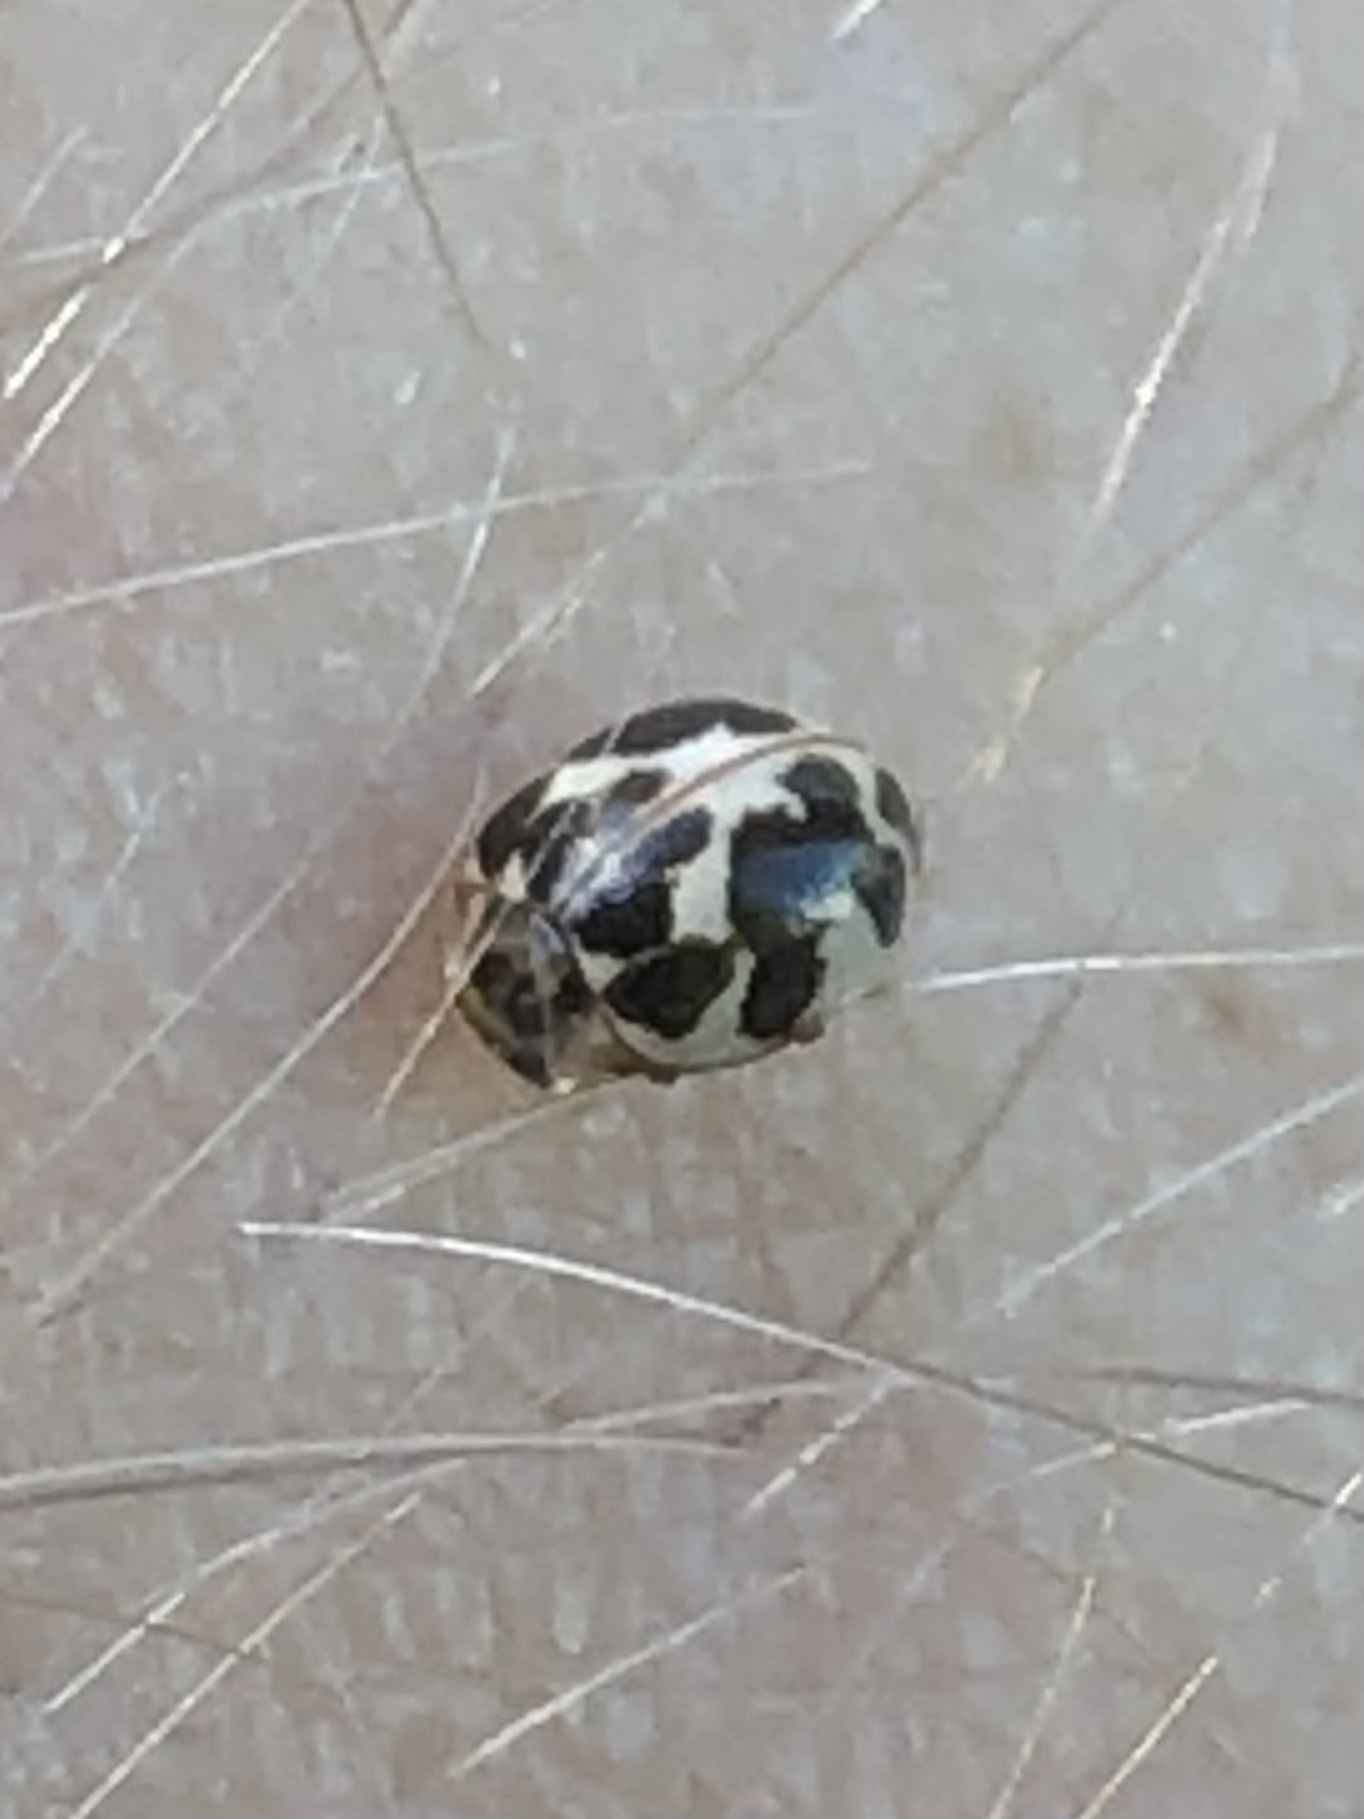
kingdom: Animalia
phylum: Arthropoda
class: Insecta
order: Coleoptera
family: Coccinellidae
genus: Psyllobora
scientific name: Psyllobora vigintimaculata
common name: Ladybird beetle
